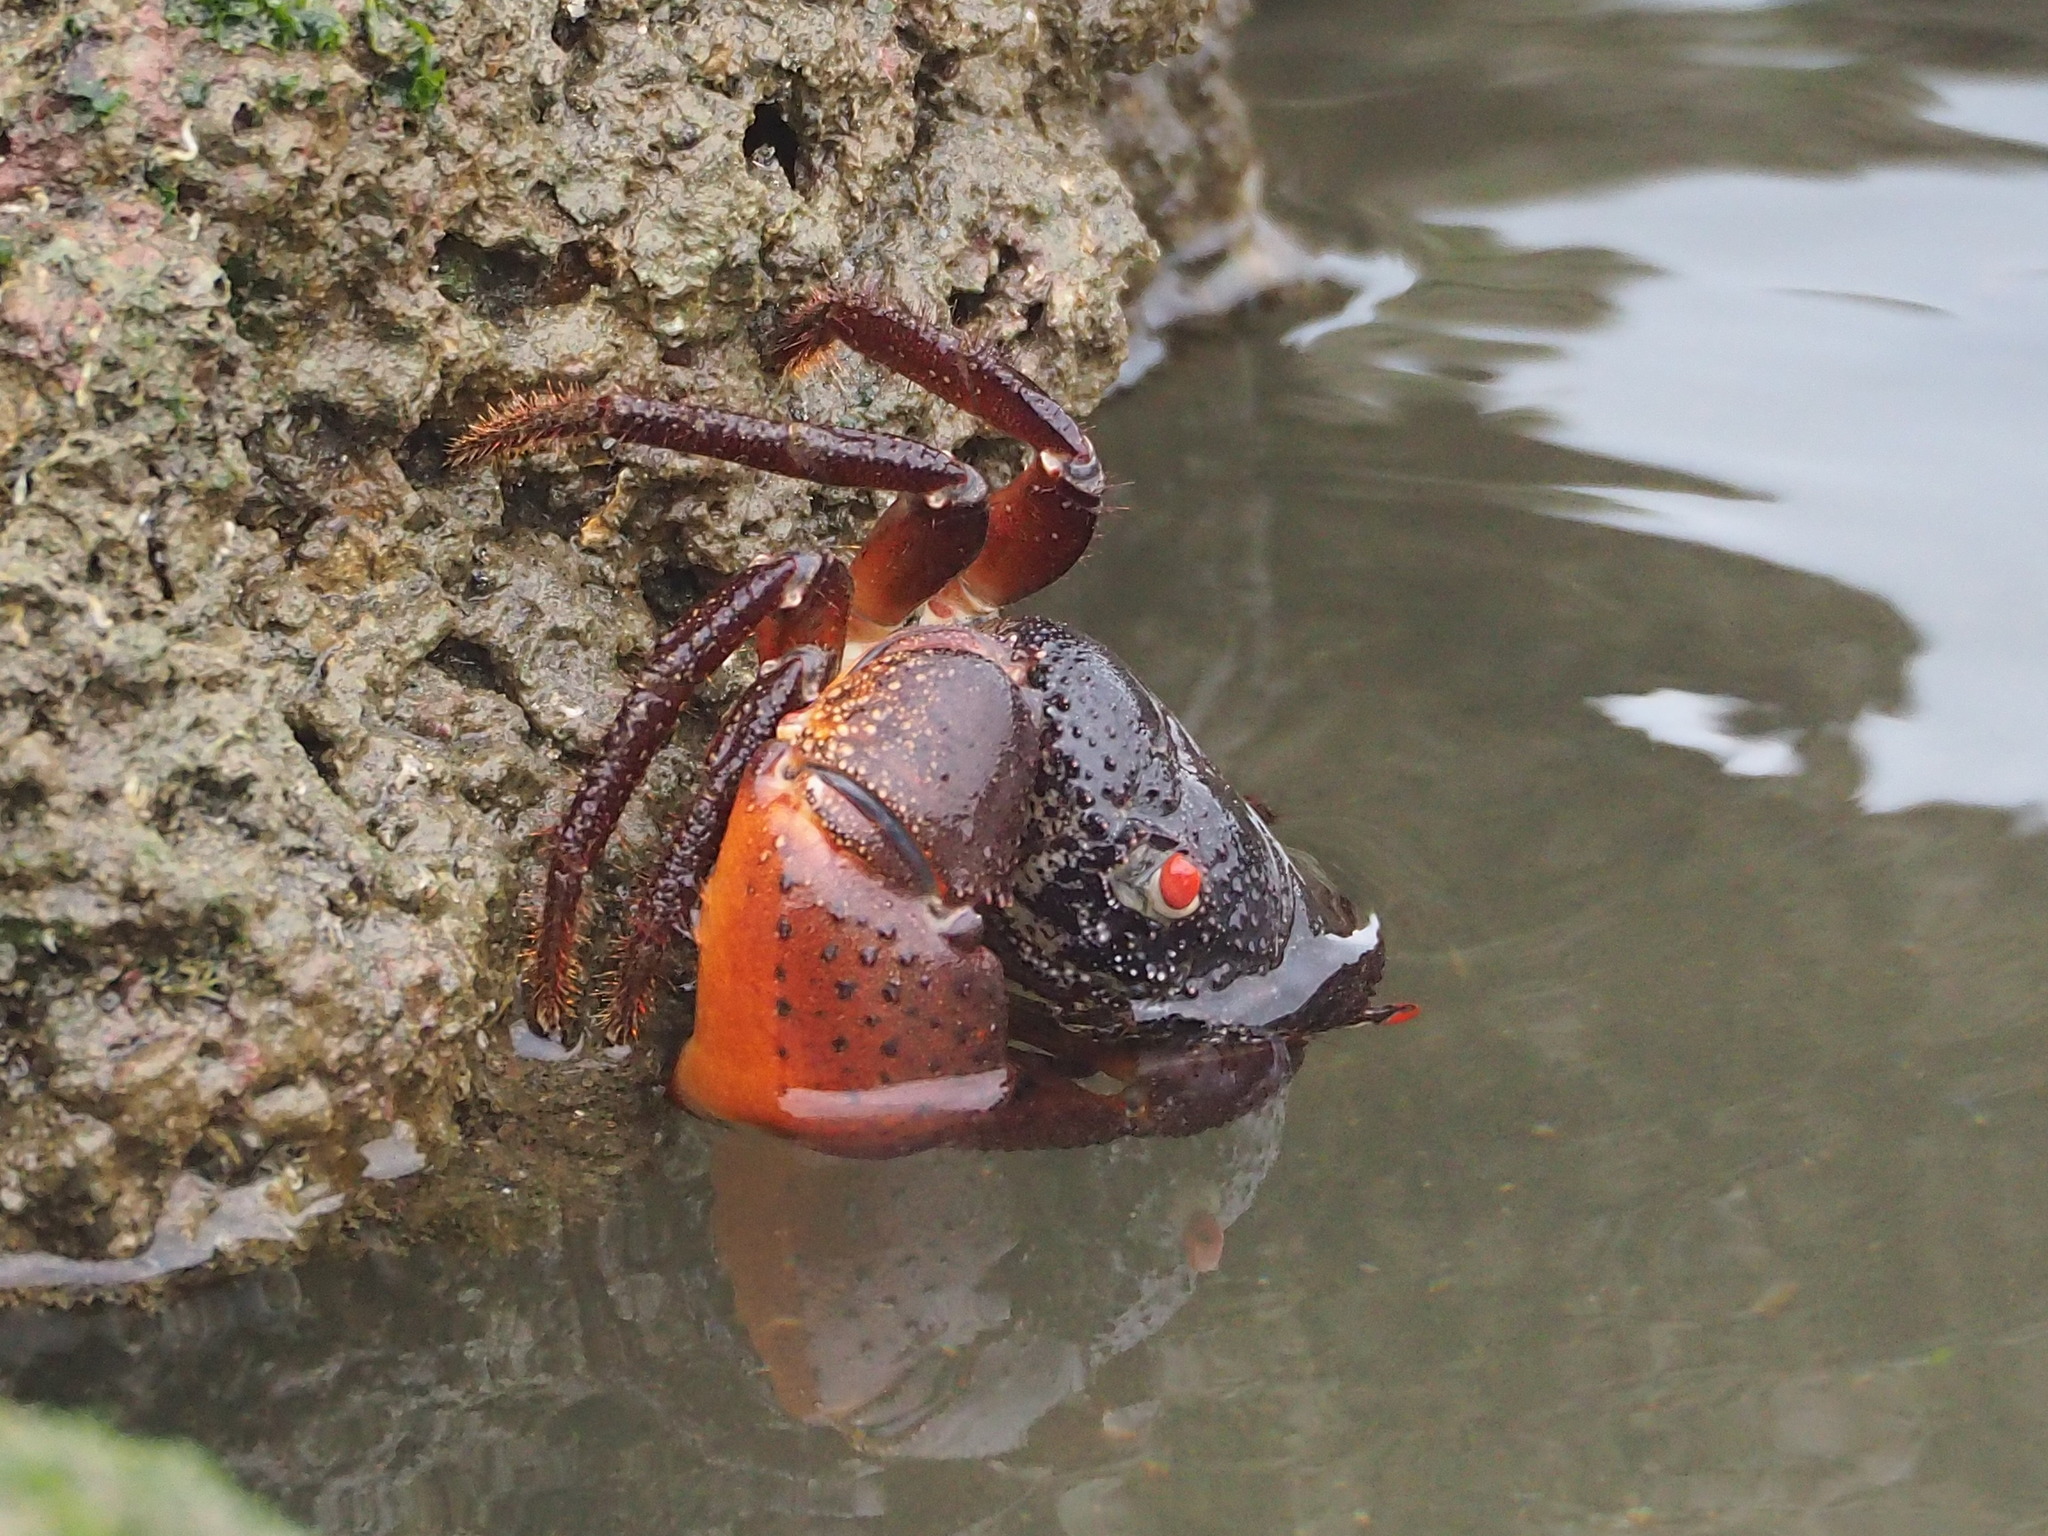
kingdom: Animalia
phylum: Arthropoda
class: Malacostraca
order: Decapoda
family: Eriphiidae
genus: Eriphia
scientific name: Eriphia ferox
